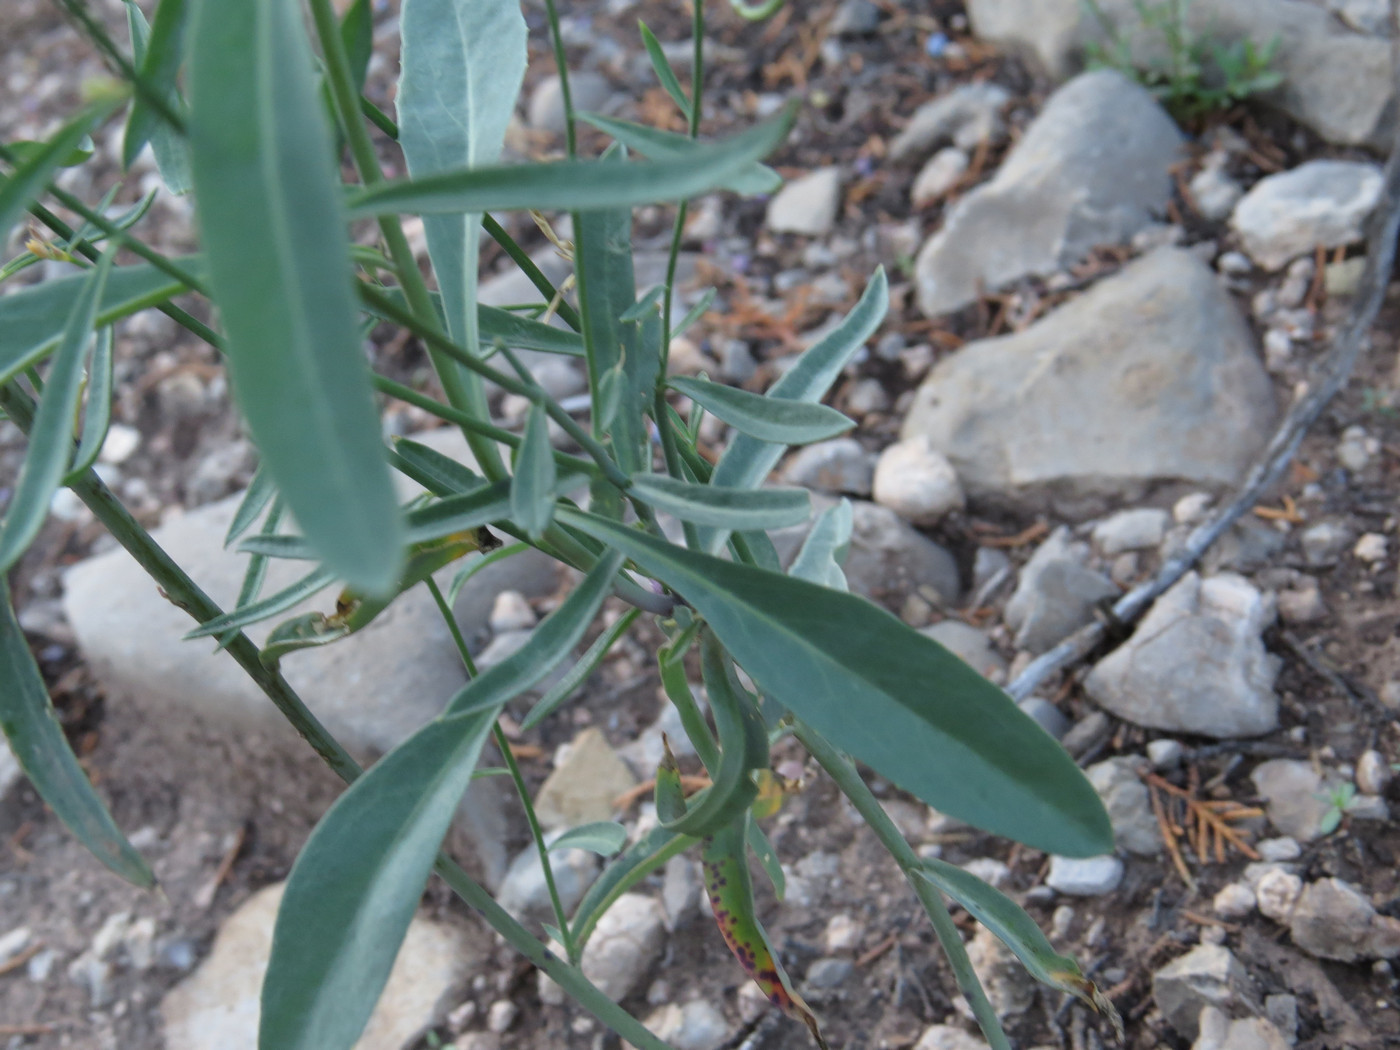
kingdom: Plantae
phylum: Tracheophyta
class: Magnoliopsida
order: Brassicales
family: Brassicaceae
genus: Hesperidanthus
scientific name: Hesperidanthus linearifolius
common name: Slim-leaf plains mustard
